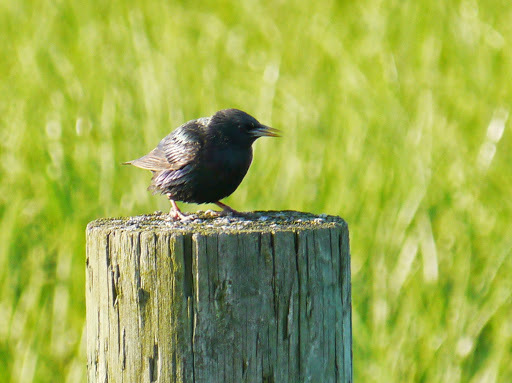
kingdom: Animalia
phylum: Chordata
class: Aves
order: Passeriformes
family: Sturnidae
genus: Sturnus
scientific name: Sturnus vulgaris
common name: Common starling
